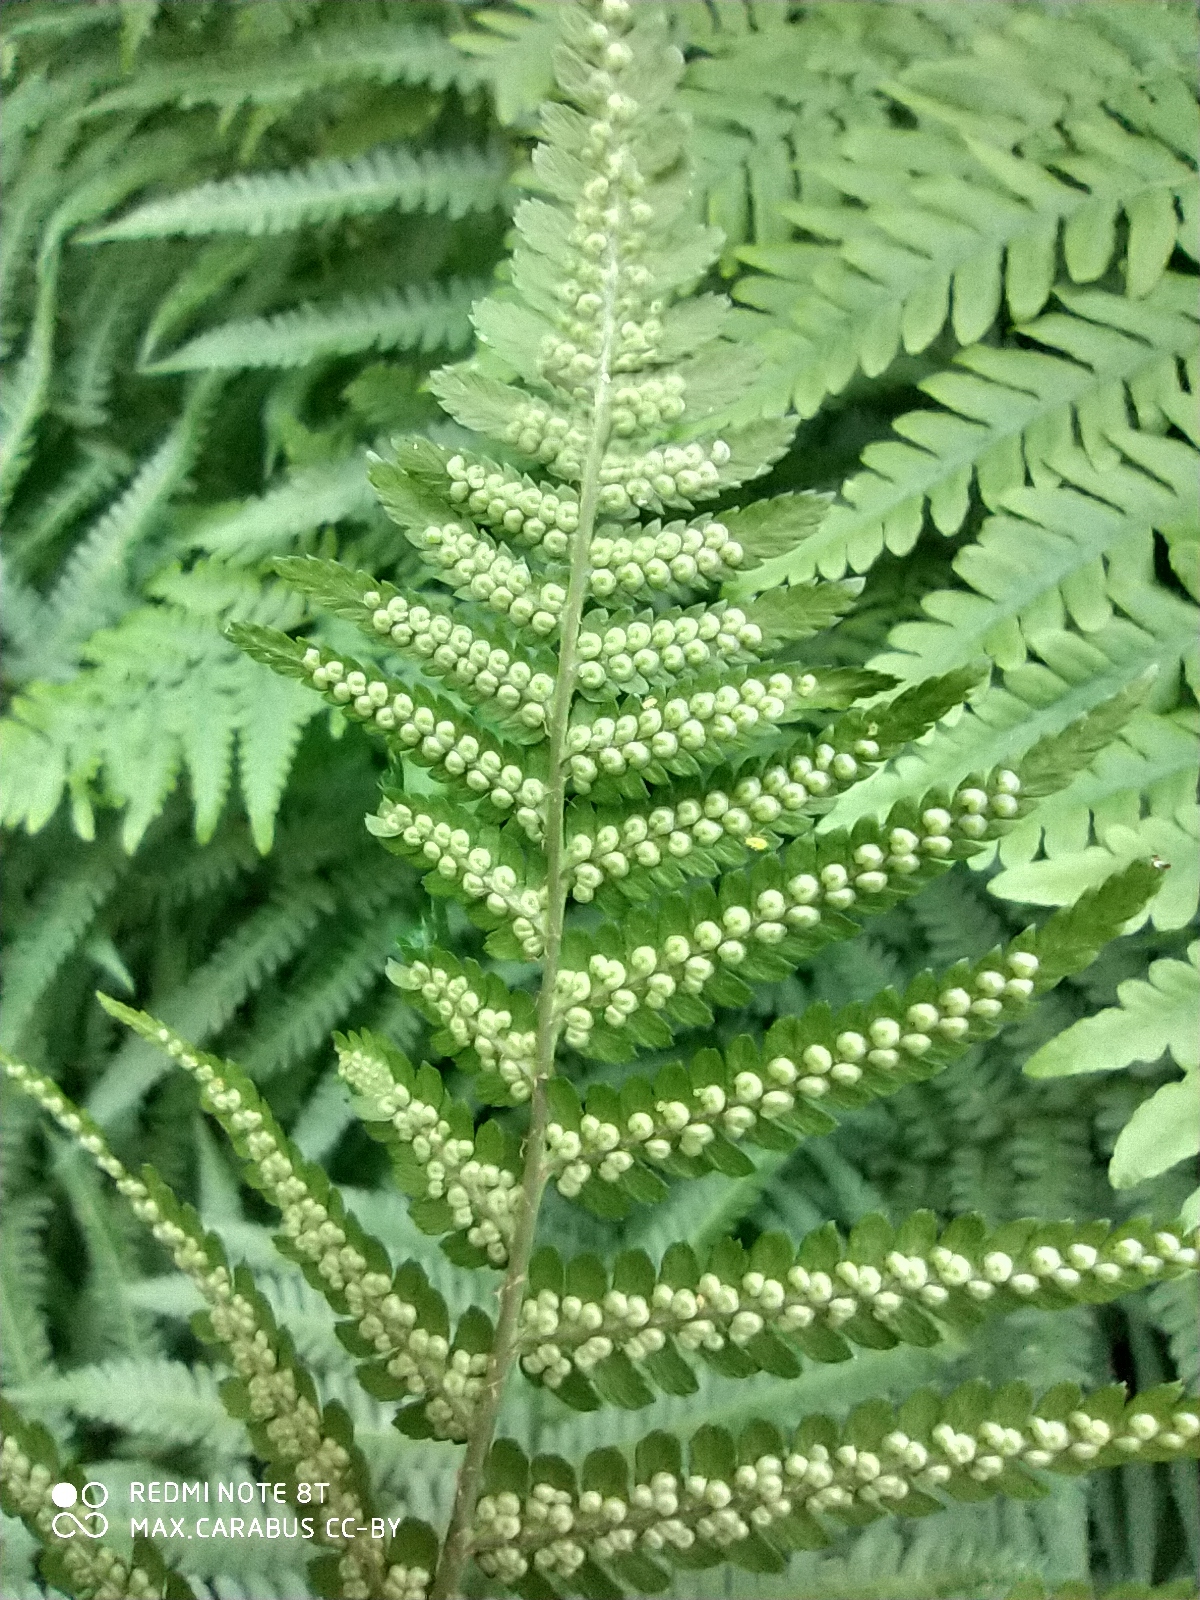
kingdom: Plantae
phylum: Tracheophyta
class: Polypodiopsida
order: Polypodiales
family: Dryopteridaceae
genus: Dryopteris
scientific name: Dryopteris filix-mas
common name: Male fern
